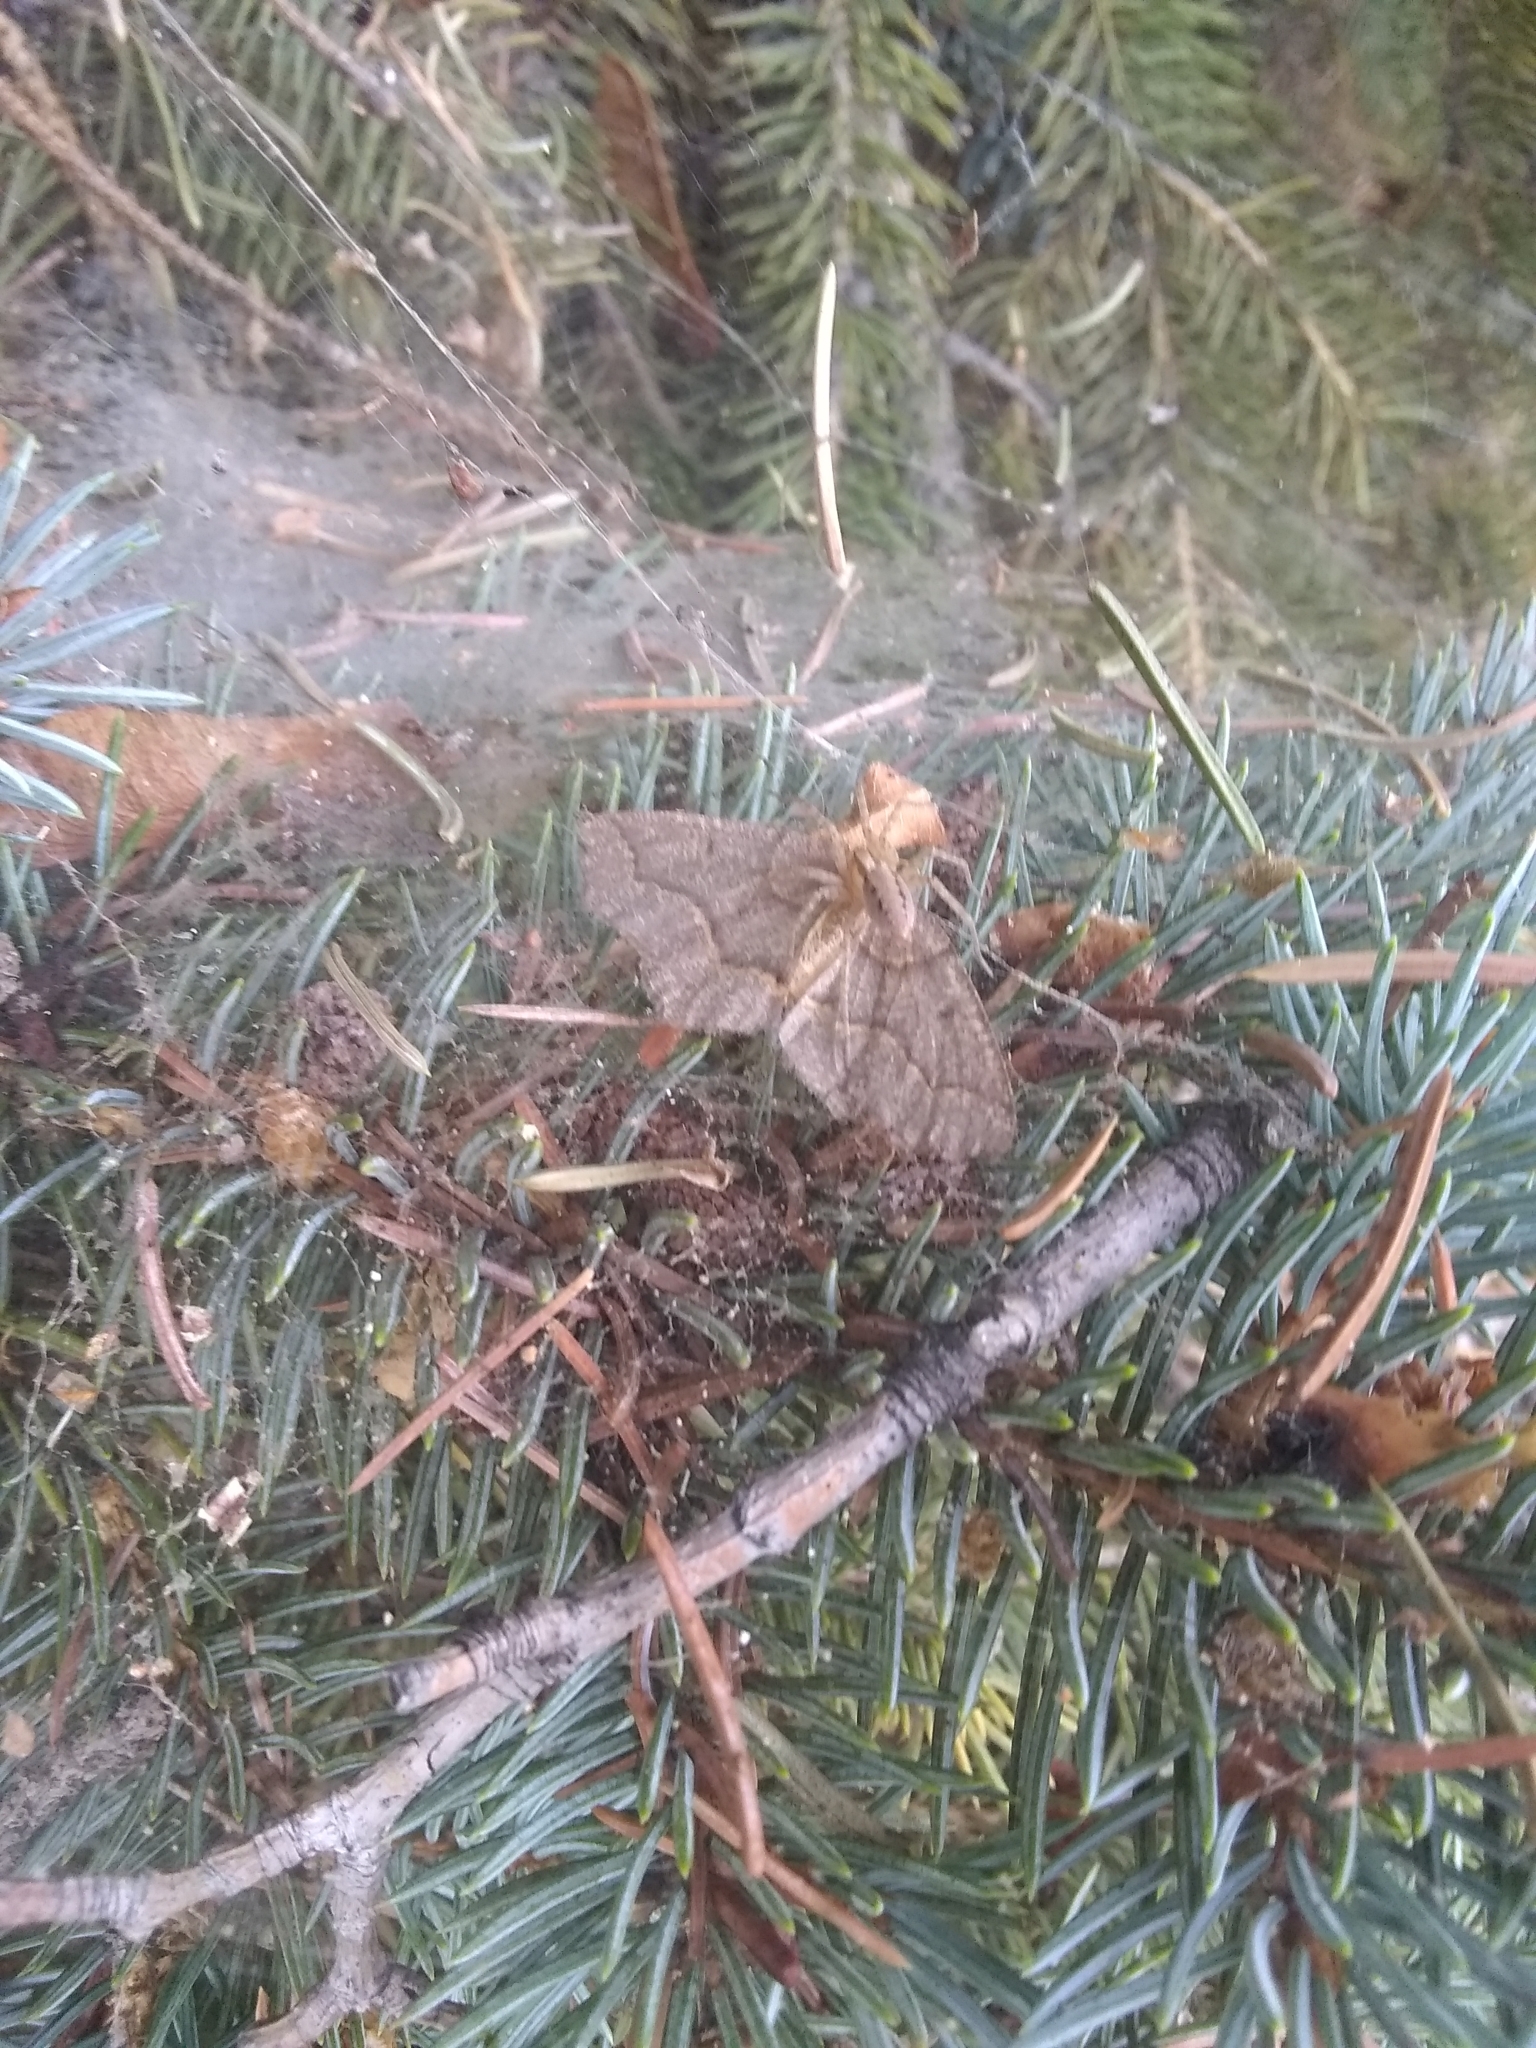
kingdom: Animalia
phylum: Arthropoda
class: Insecta
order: Lepidoptera
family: Geometridae
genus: Lambdina
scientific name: Lambdina fiscellaria
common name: Hemlock looper
